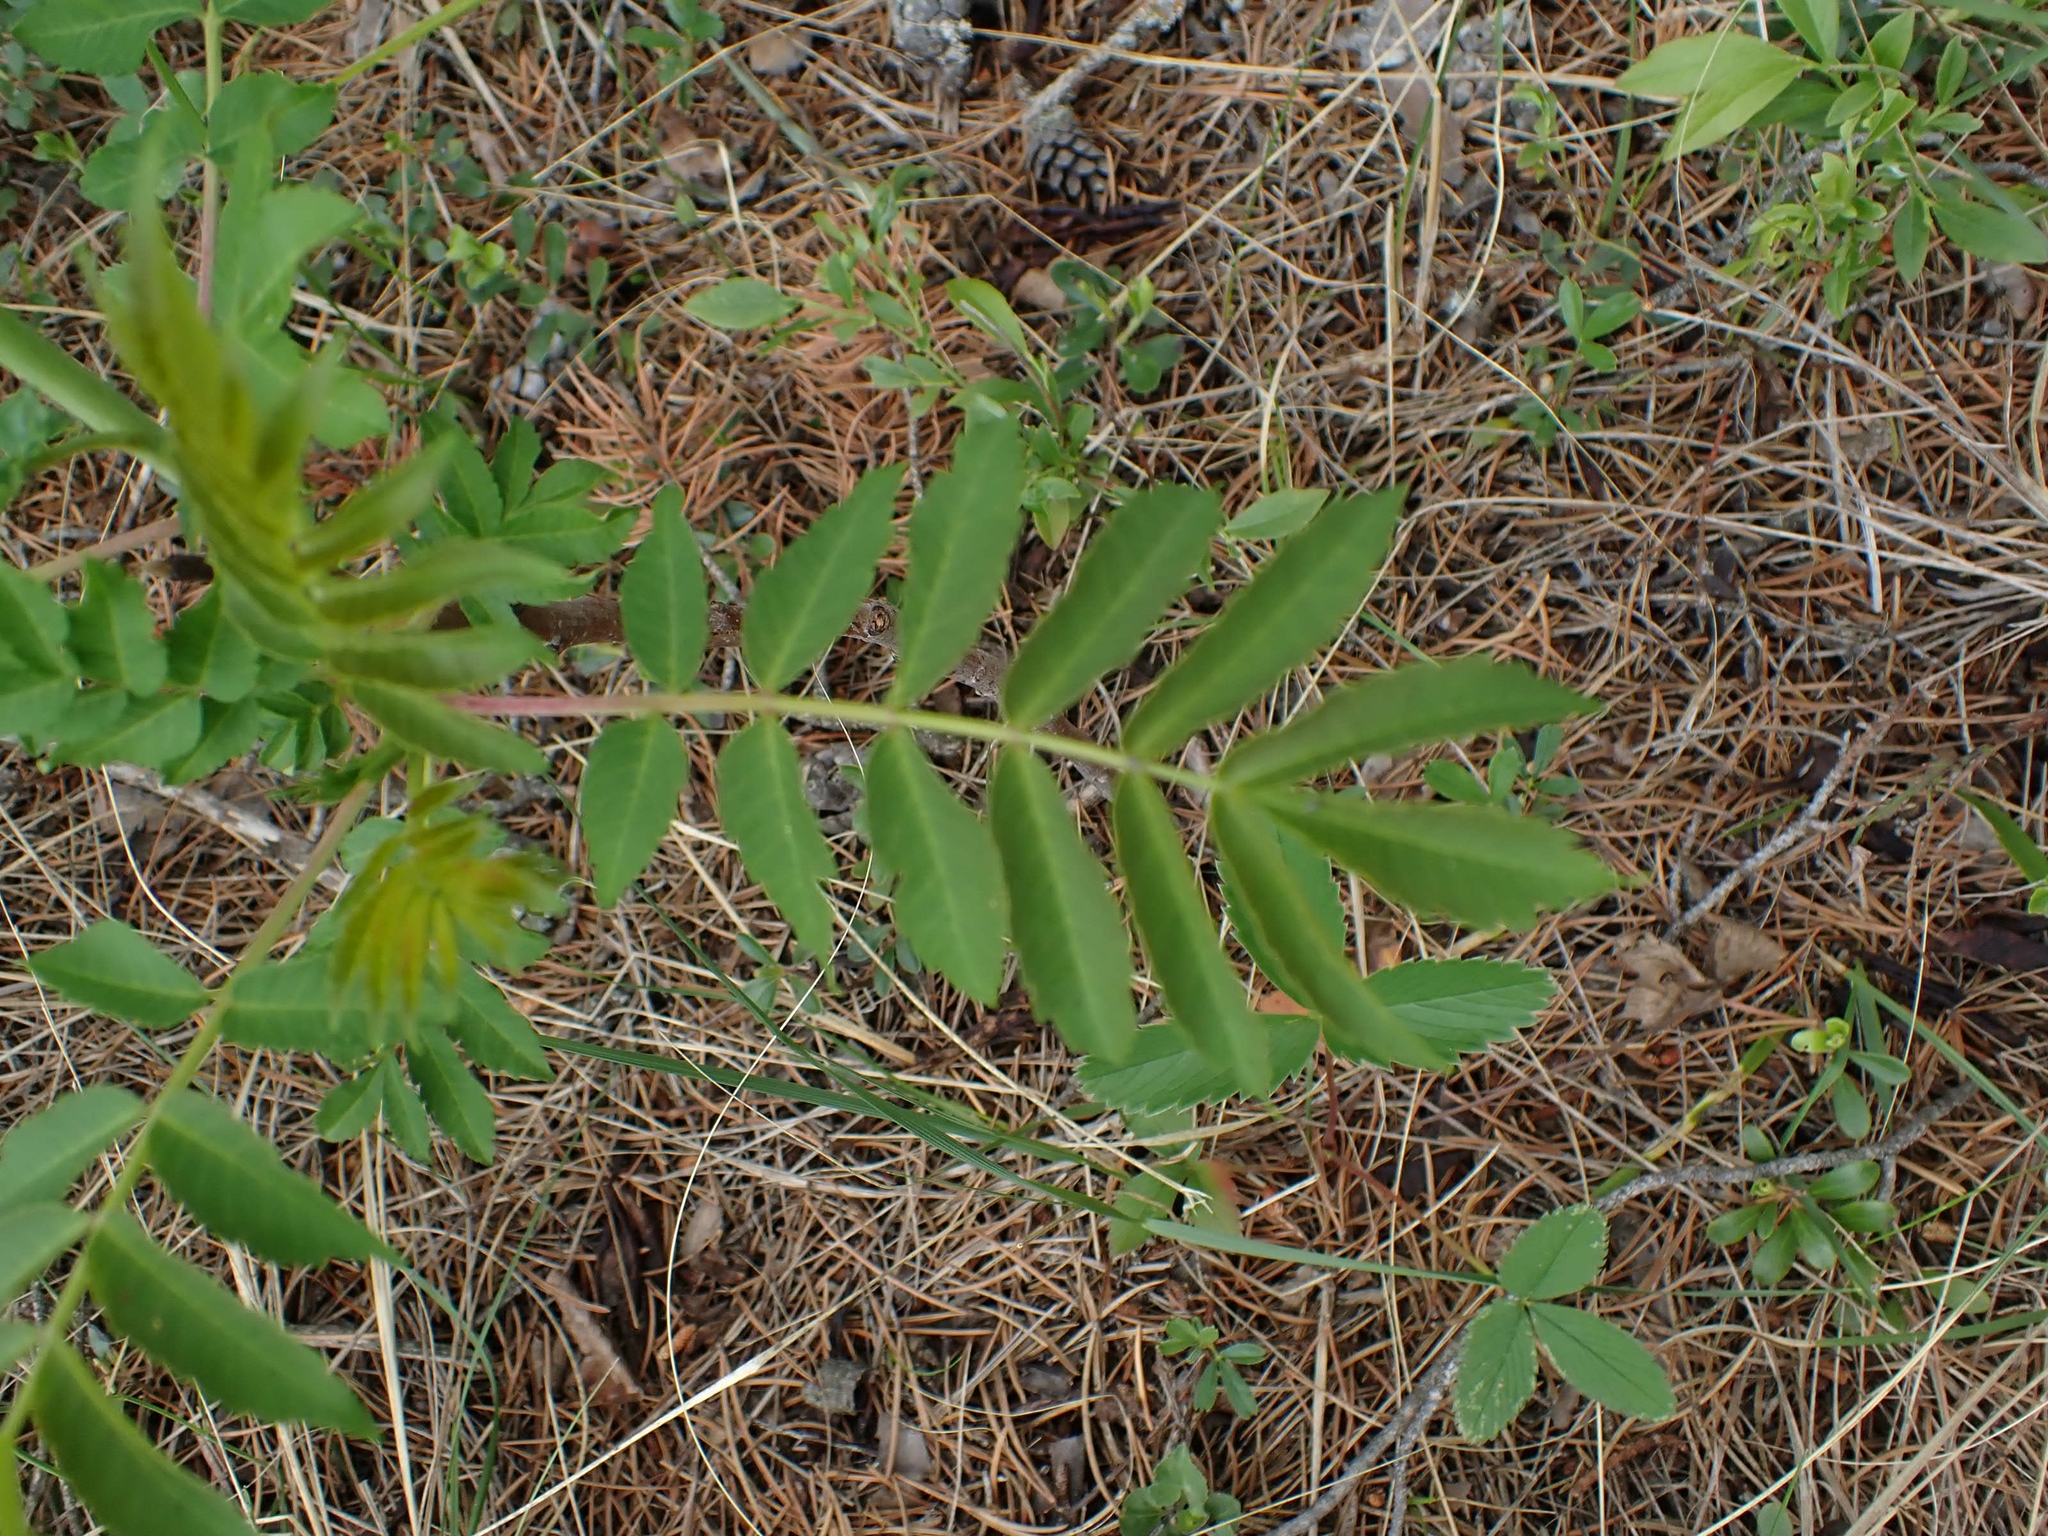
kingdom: Plantae
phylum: Tracheophyta
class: Magnoliopsida
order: Sapindales
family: Anacardiaceae
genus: Rhus
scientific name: Rhus glabra
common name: Scarlet sumac
